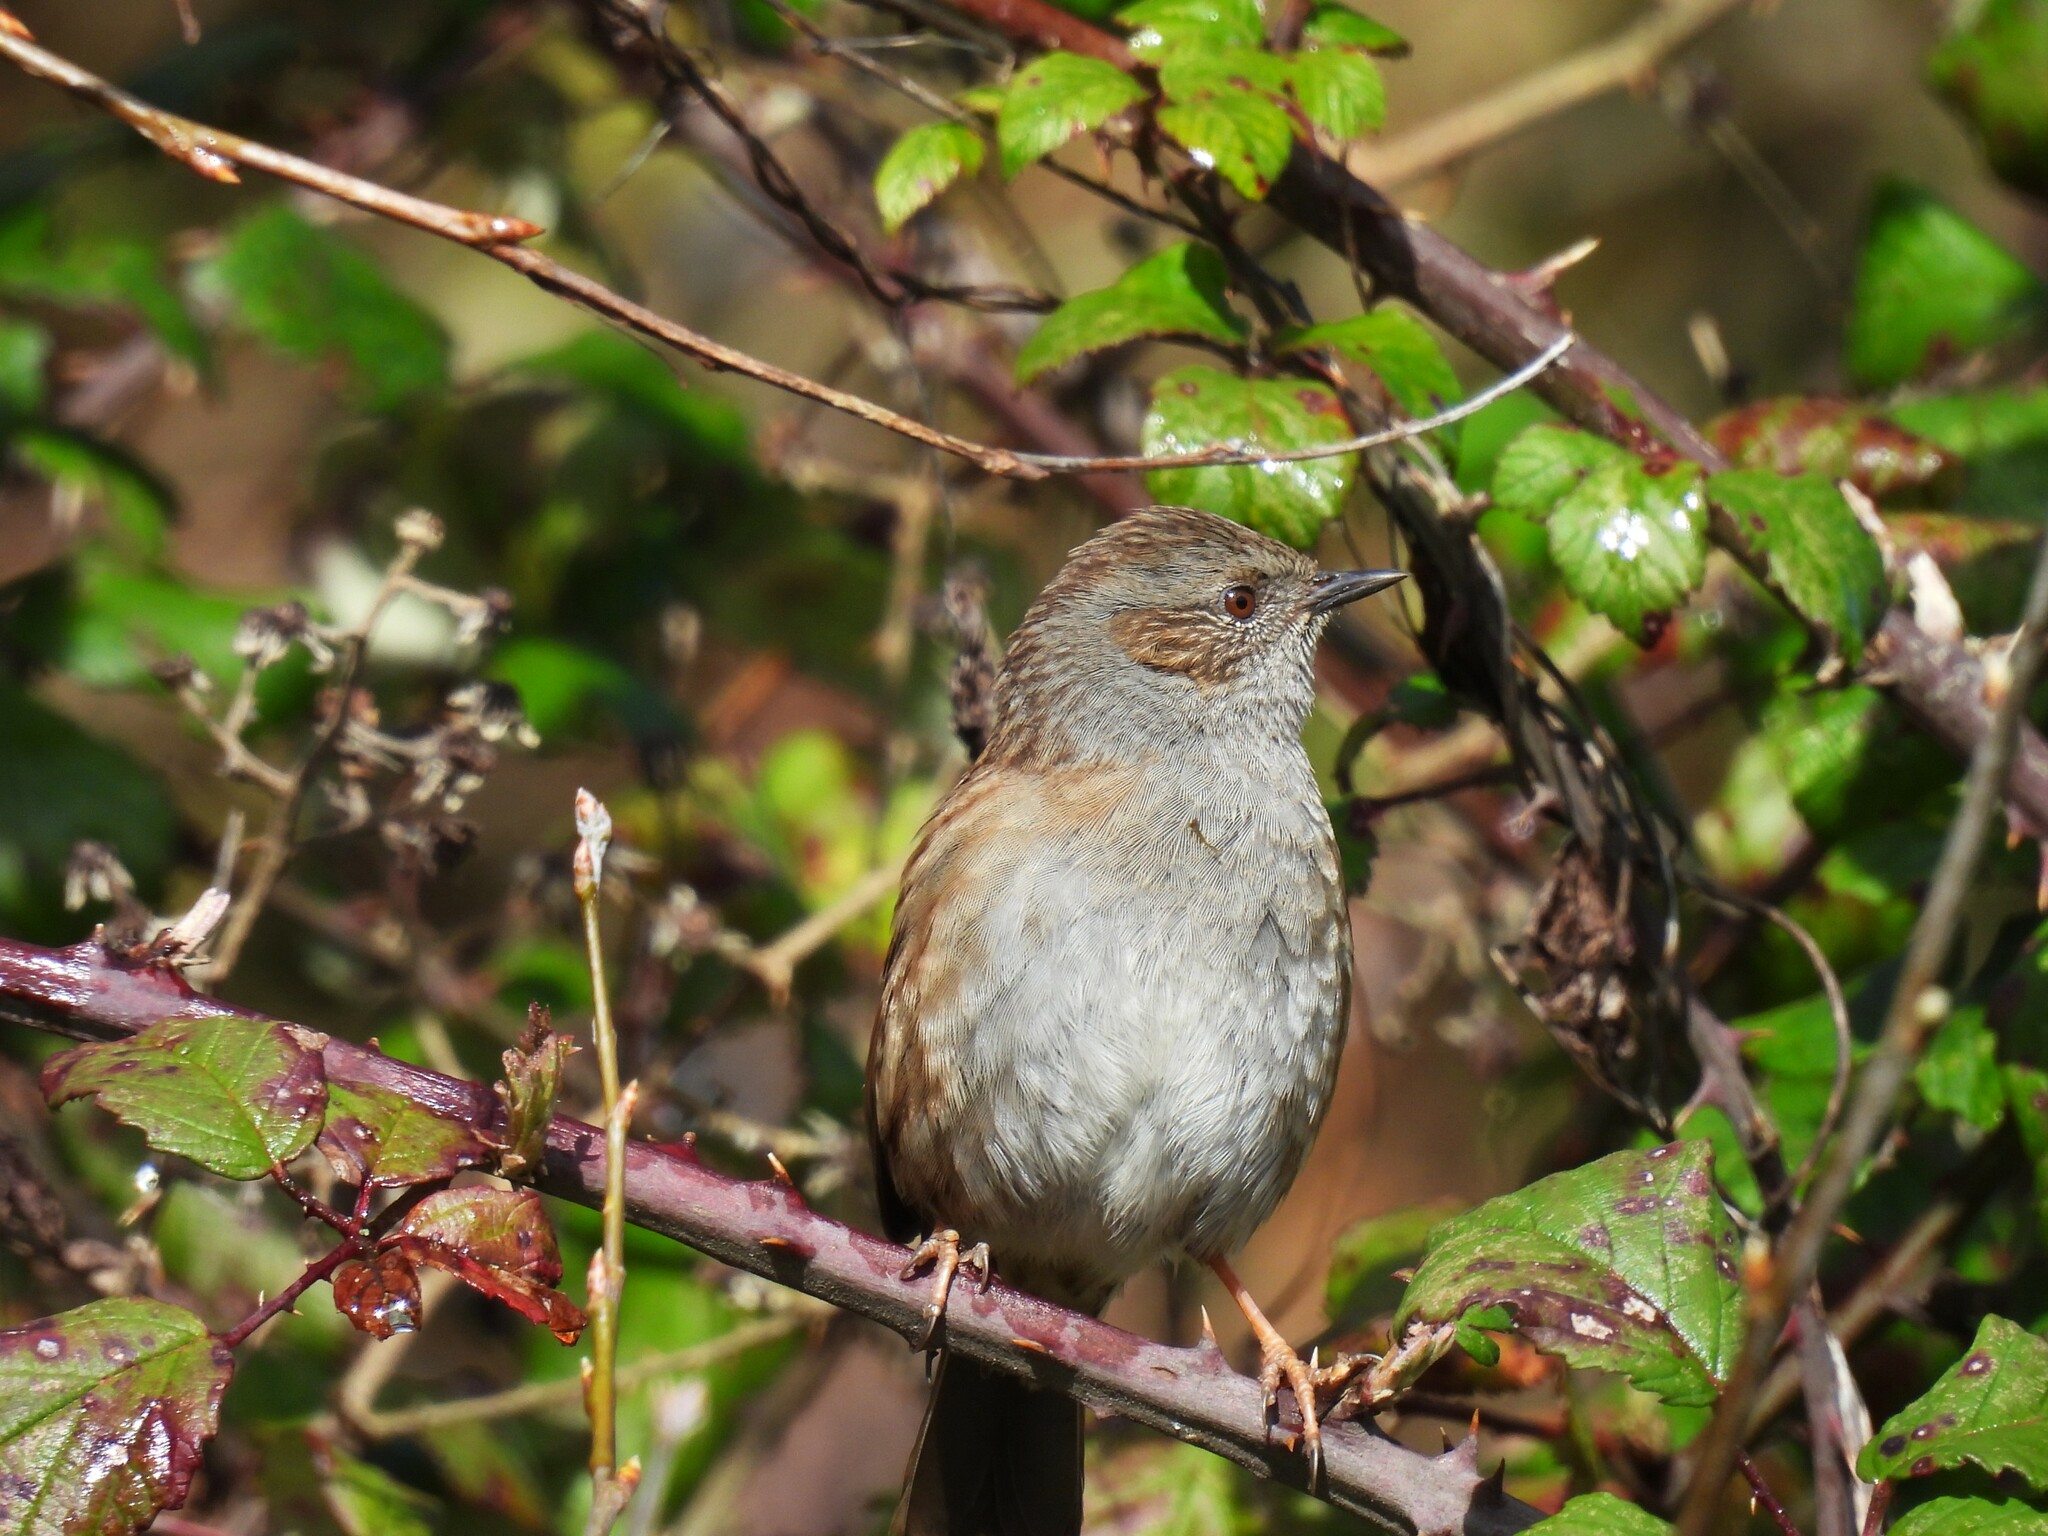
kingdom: Animalia
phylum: Chordata
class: Aves
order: Passeriformes
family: Prunellidae
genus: Prunella
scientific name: Prunella modularis
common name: Dunnock
